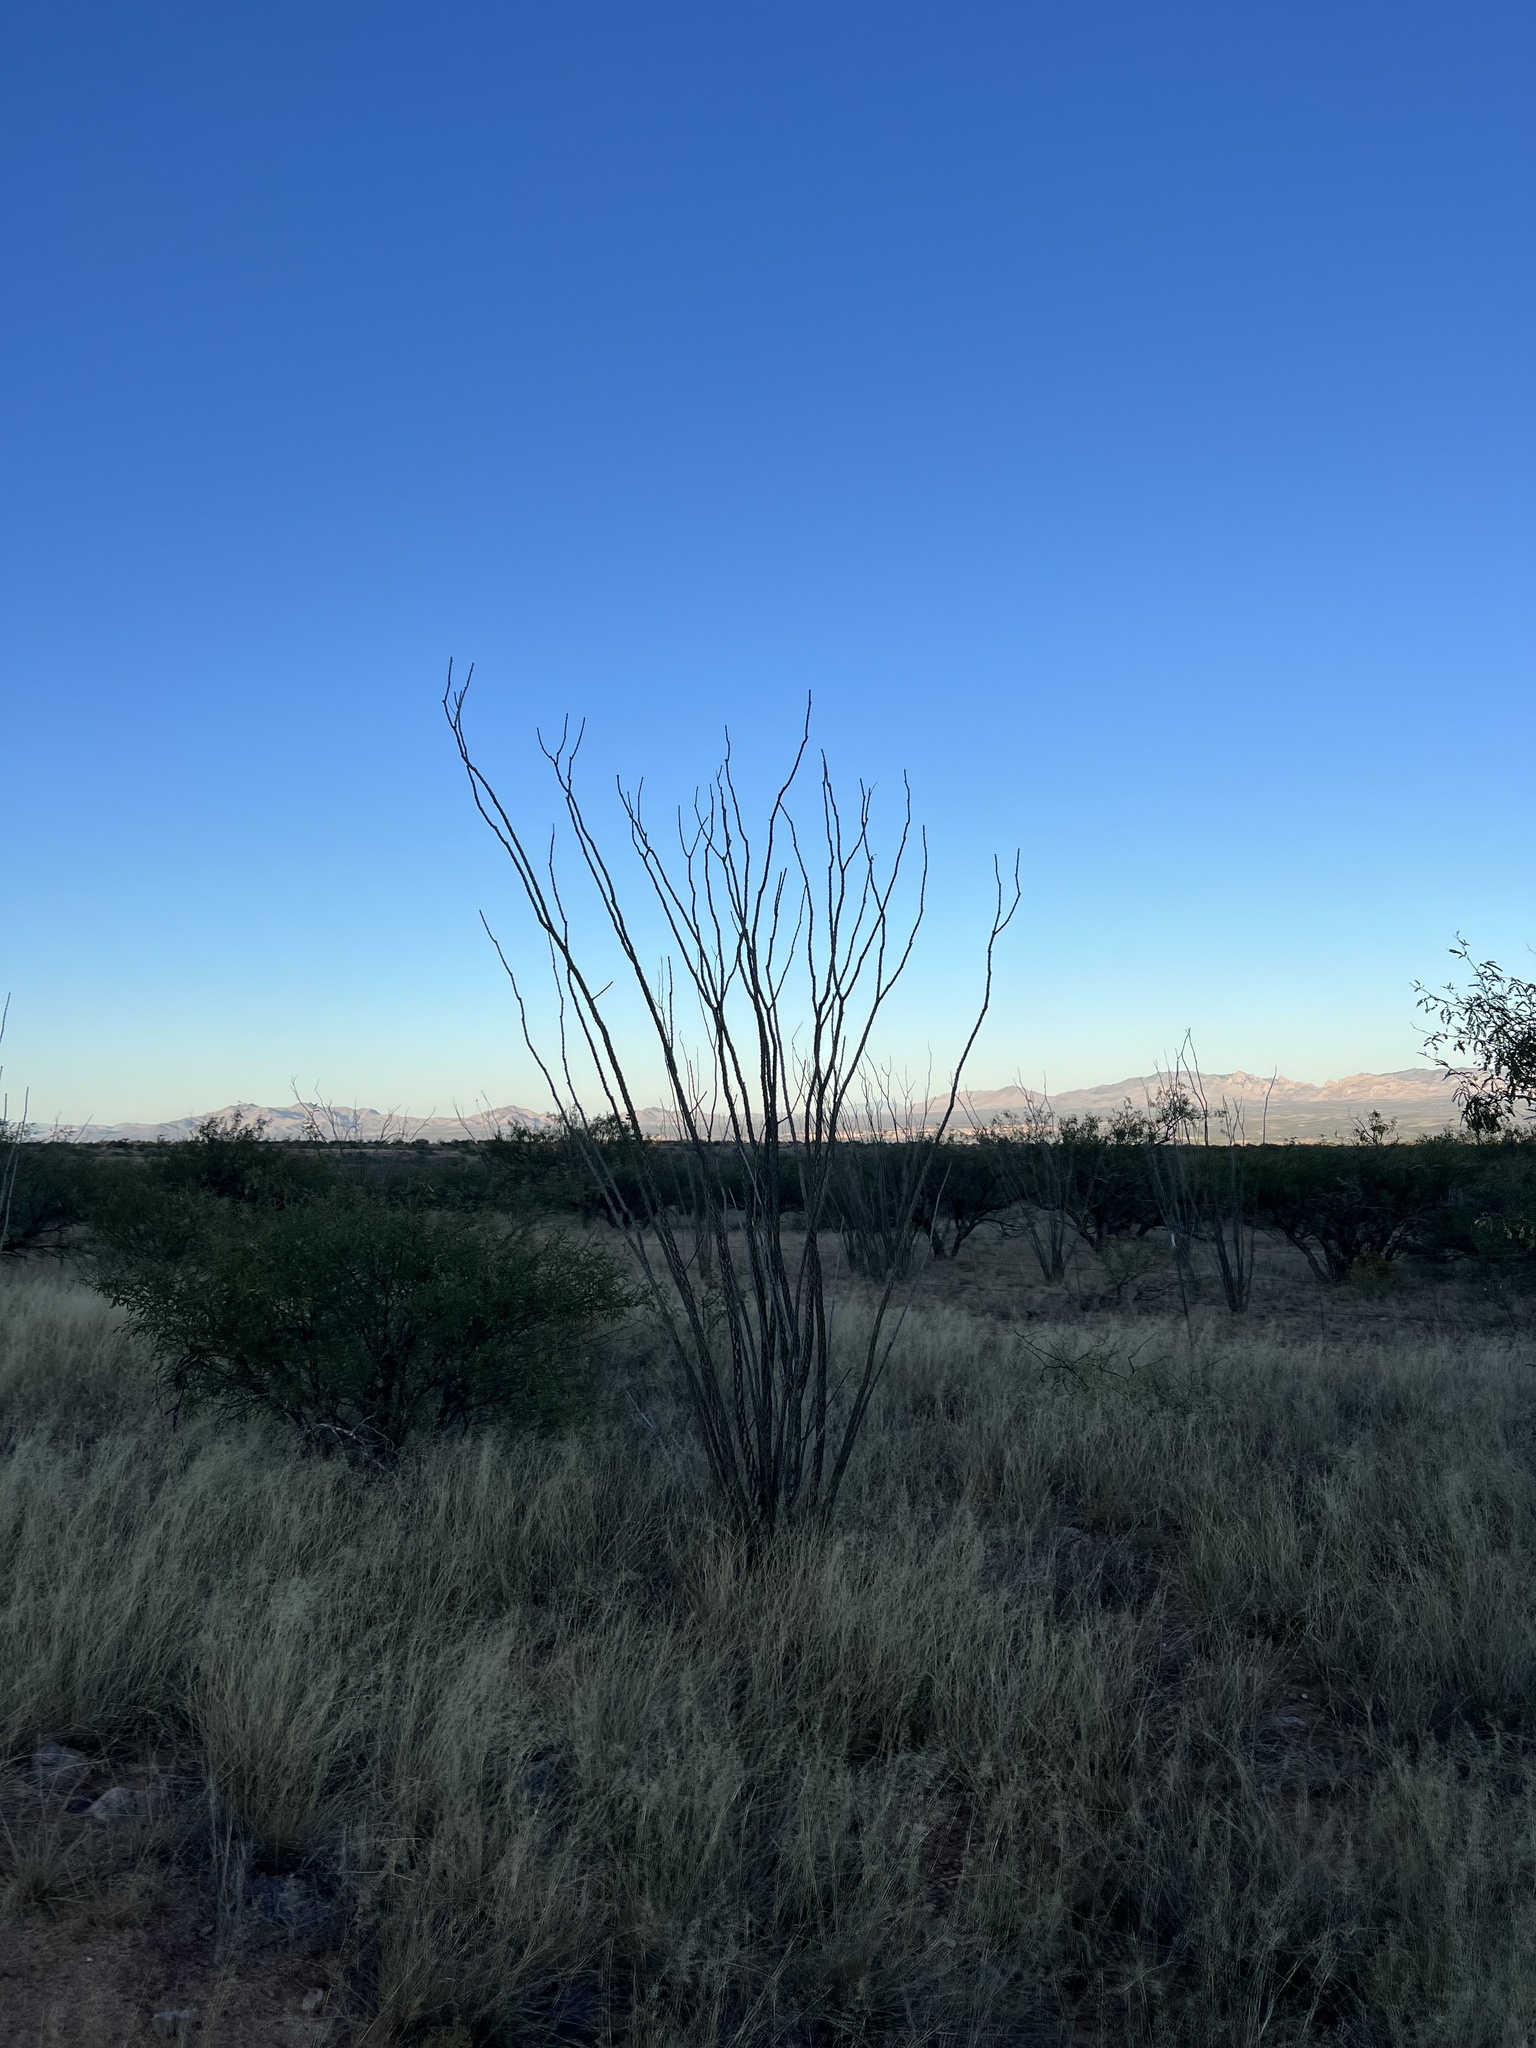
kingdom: Plantae
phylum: Tracheophyta
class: Magnoliopsida
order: Ericales
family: Fouquieriaceae
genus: Fouquieria
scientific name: Fouquieria splendens
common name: Vine-cactus
